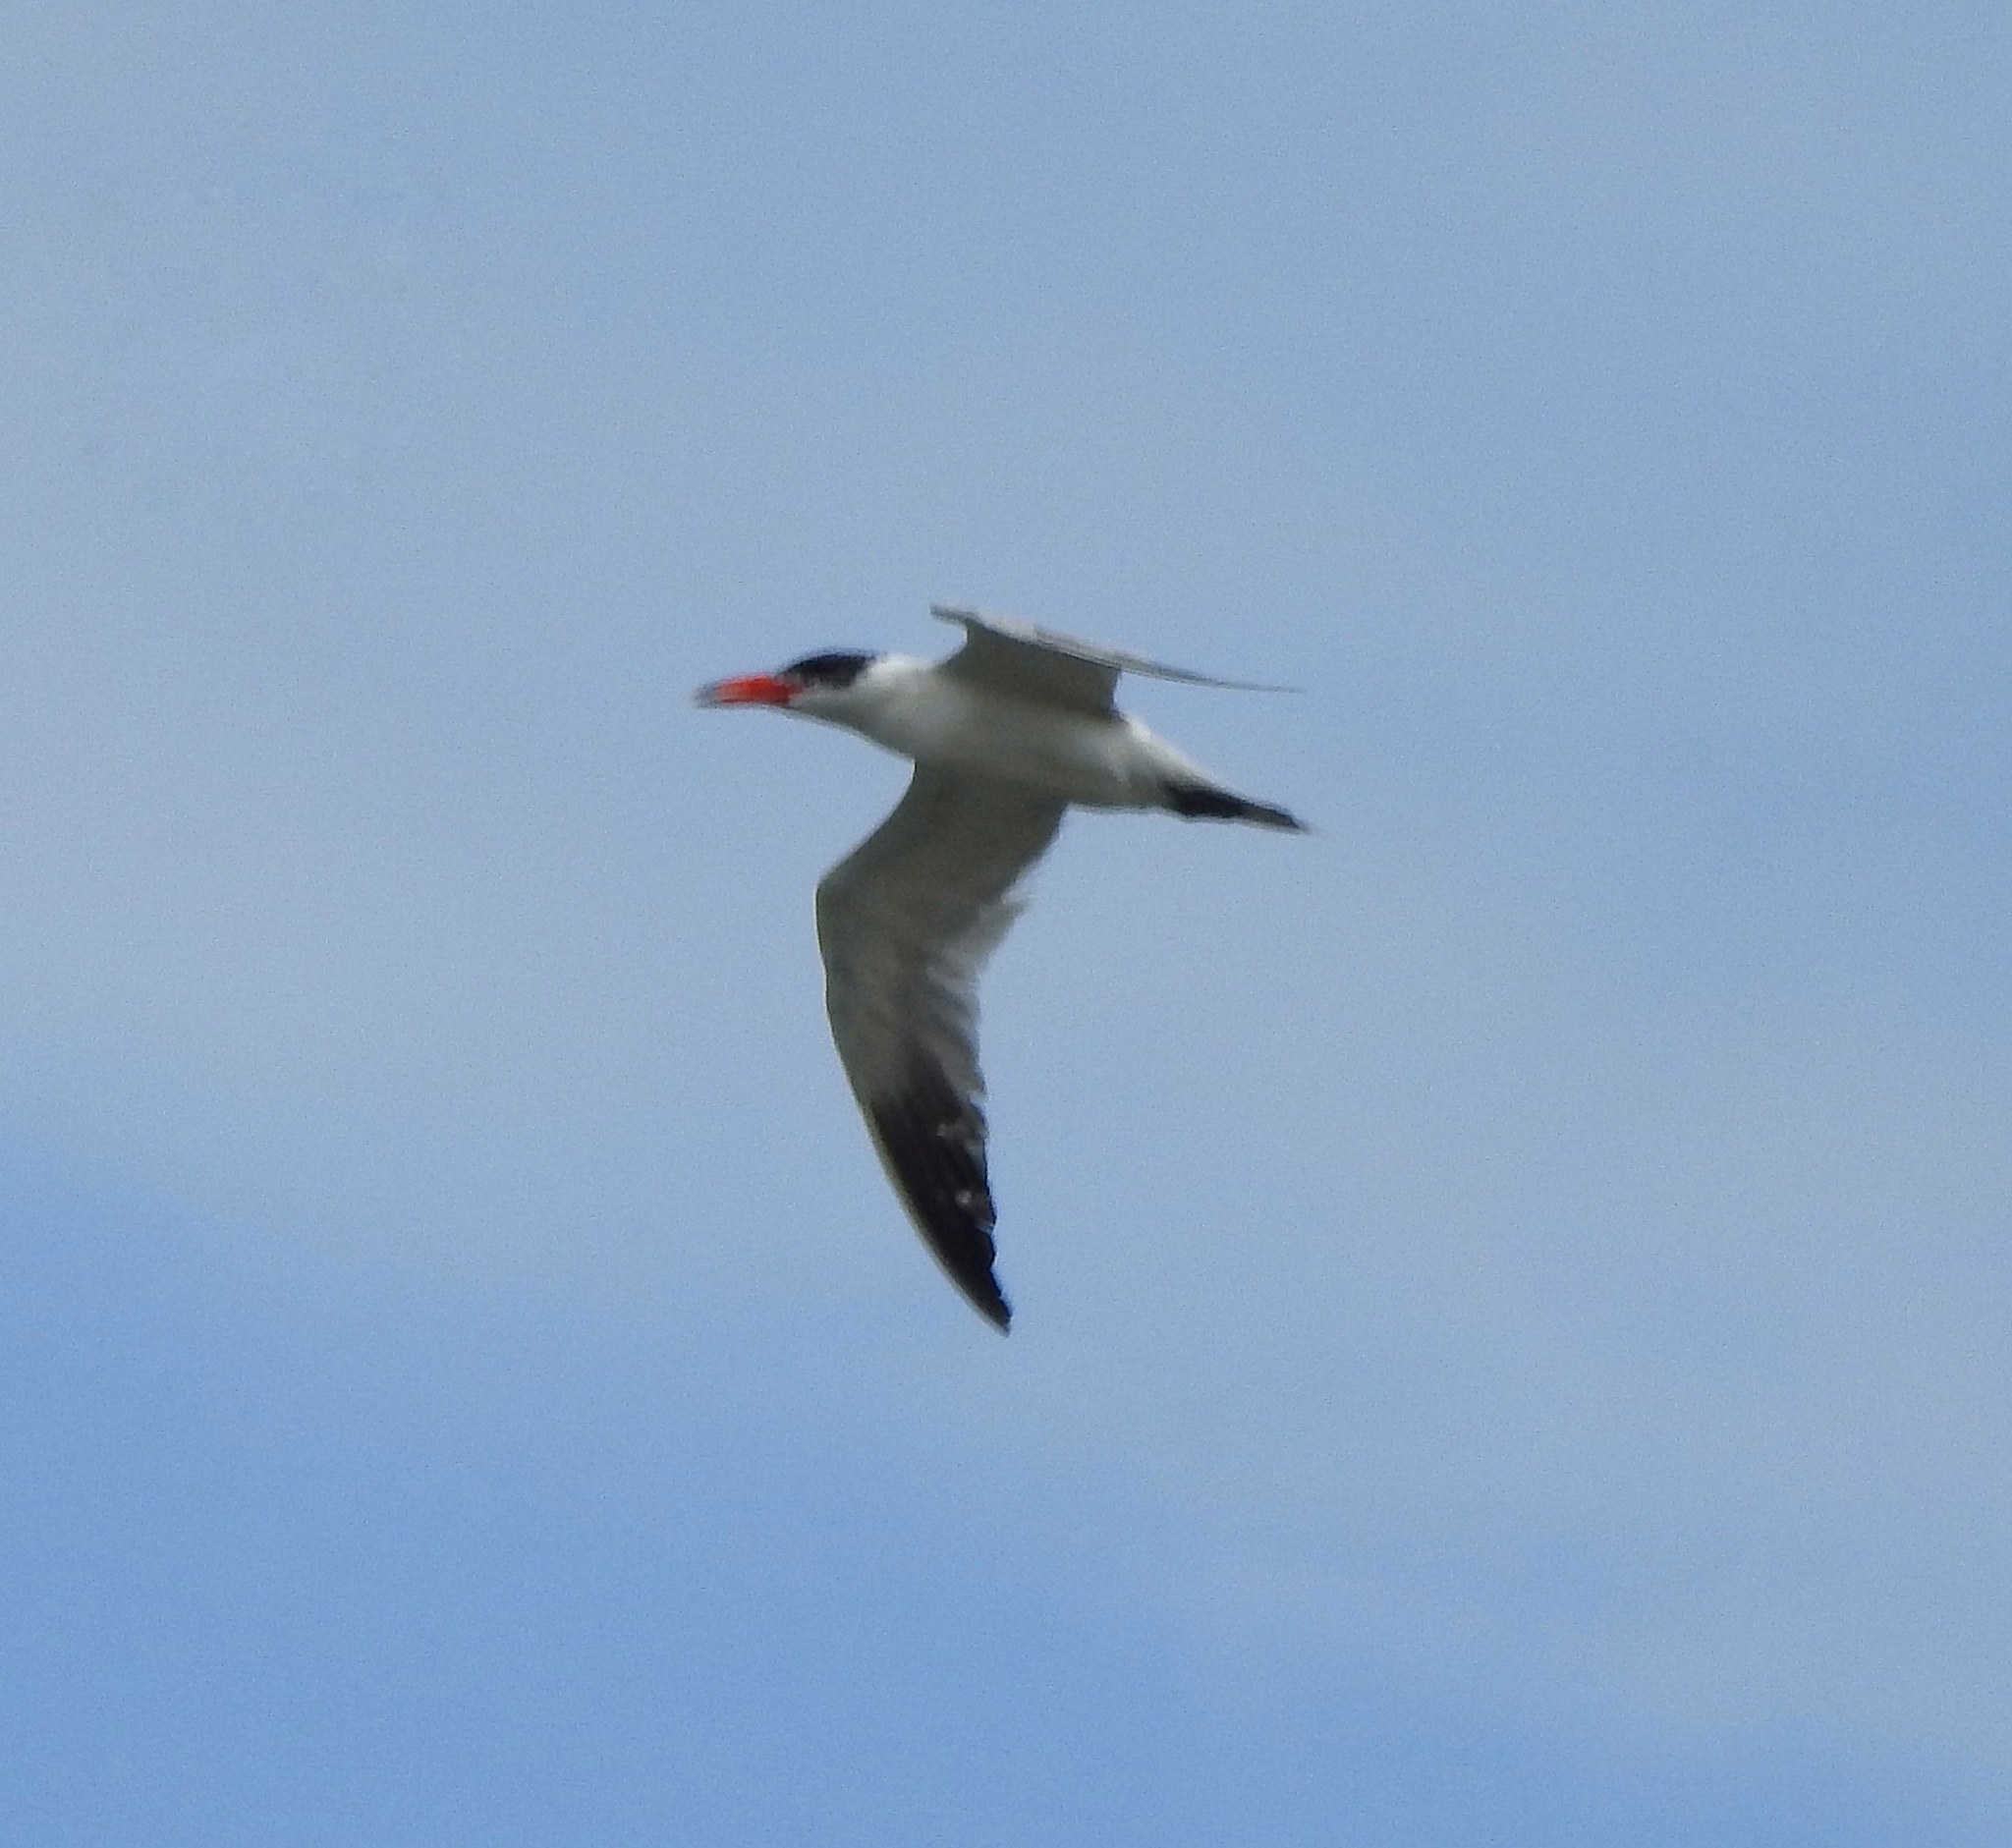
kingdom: Animalia
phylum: Chordata
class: Aves
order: Charadriiformes
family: Laridae
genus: Hydroprogne
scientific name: Hydroprogne caspia
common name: Caspian tern
